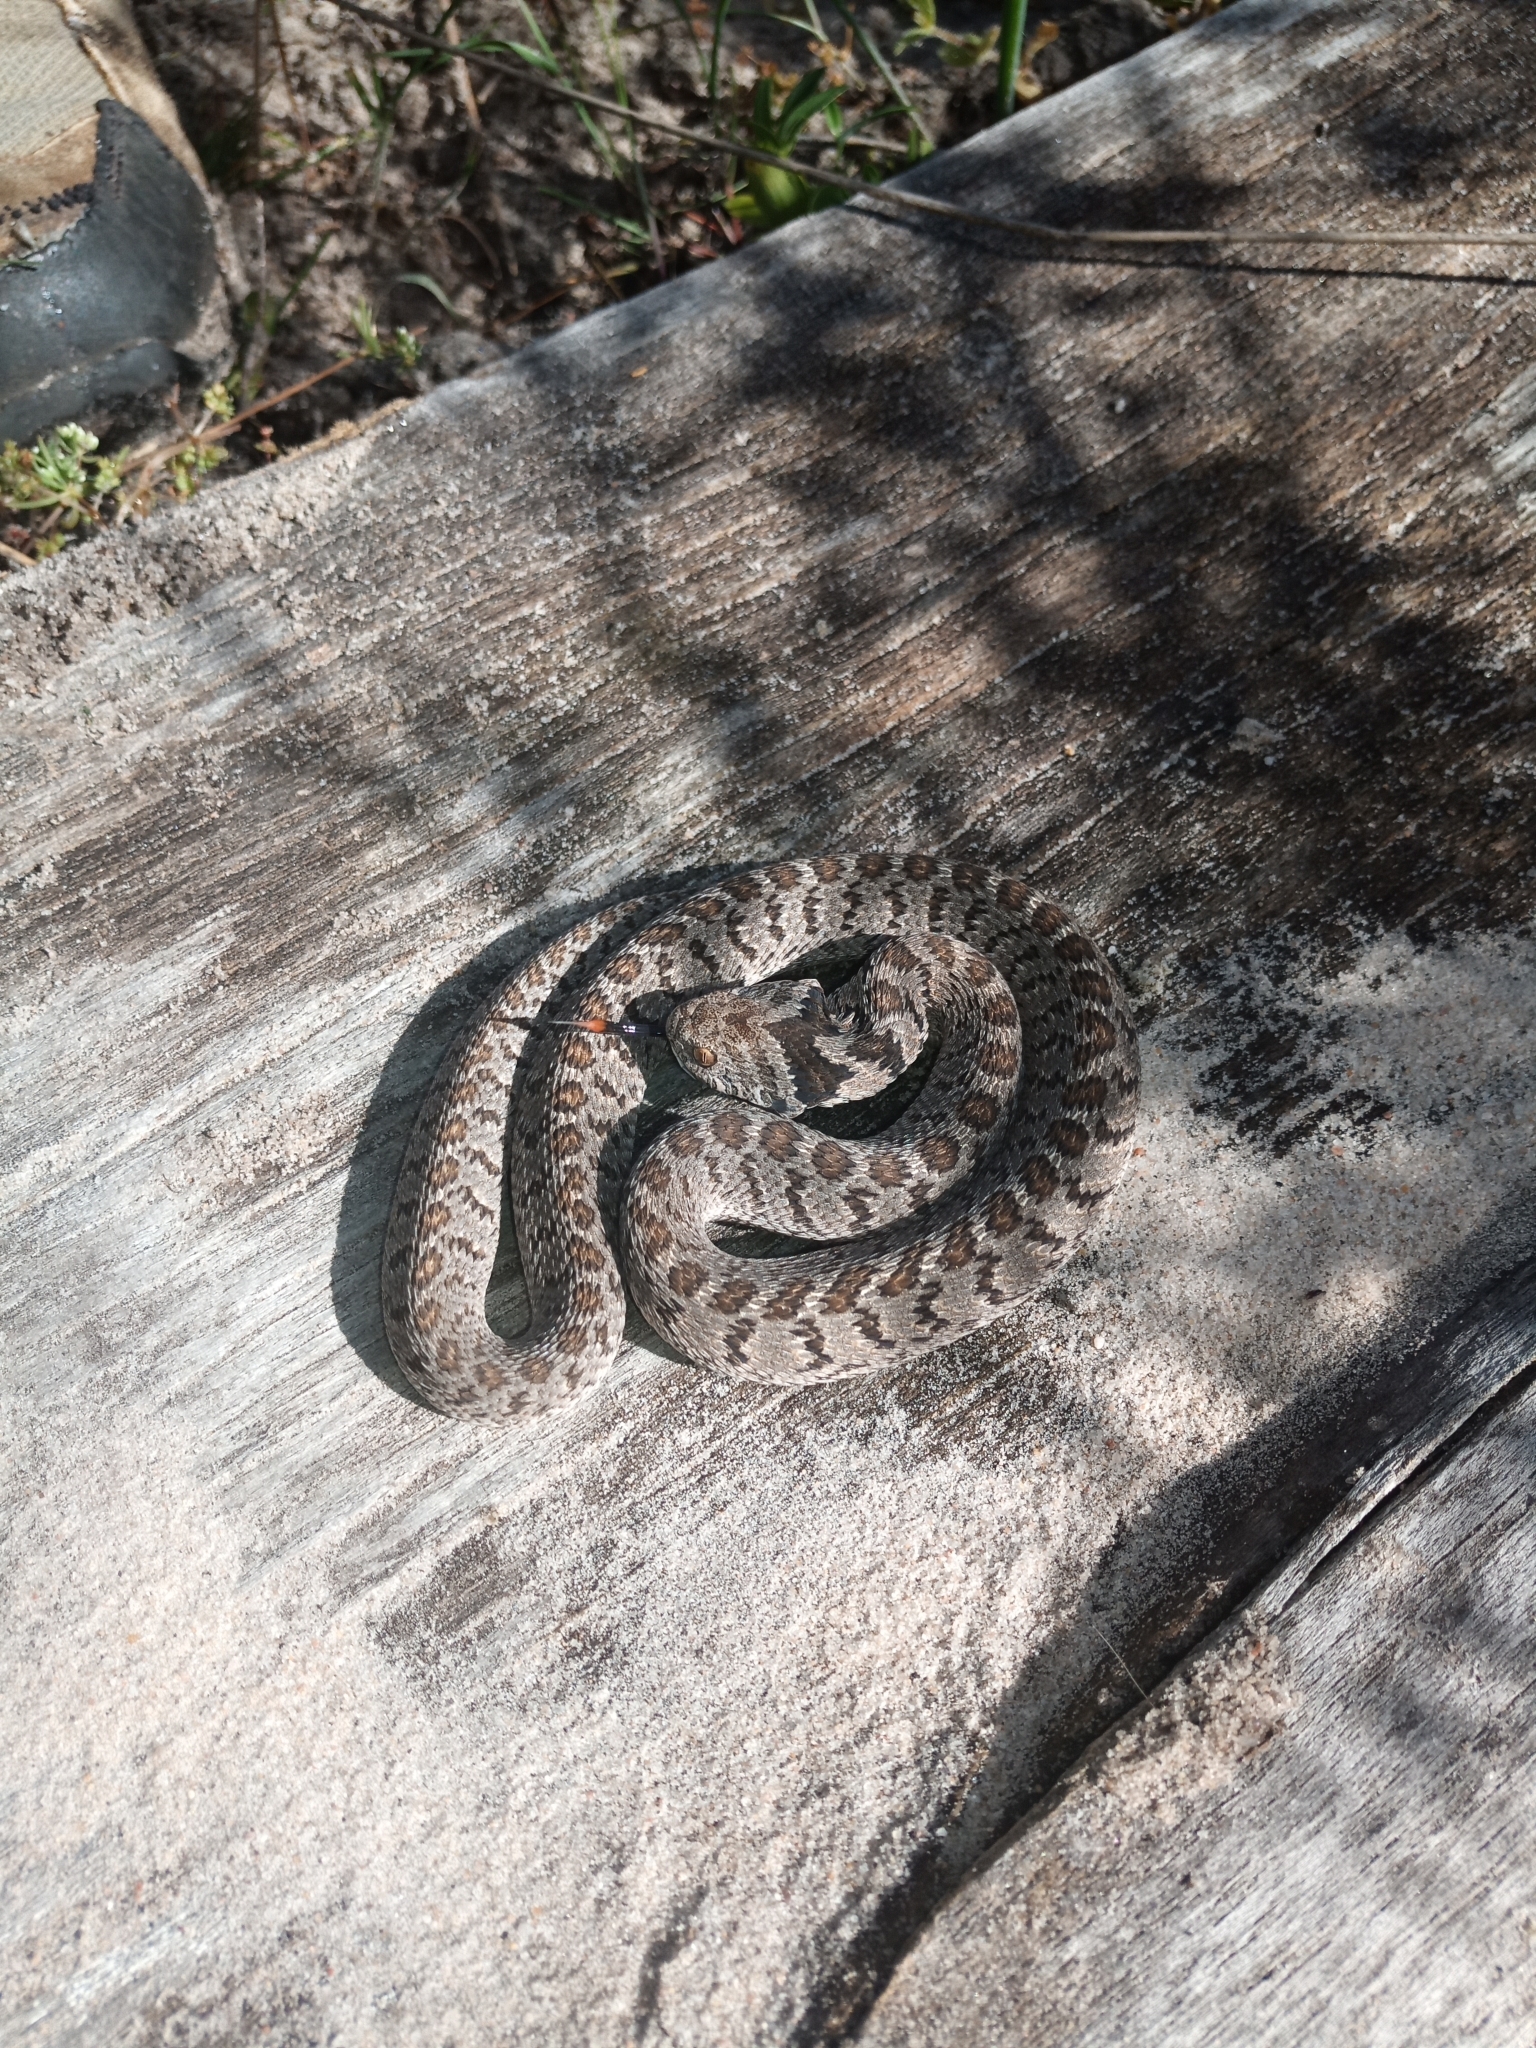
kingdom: Animalia
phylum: Chordata
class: Squamata
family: Colubridae
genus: Dasypeltis
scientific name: Dasypeltis scabra
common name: Common egg eater
